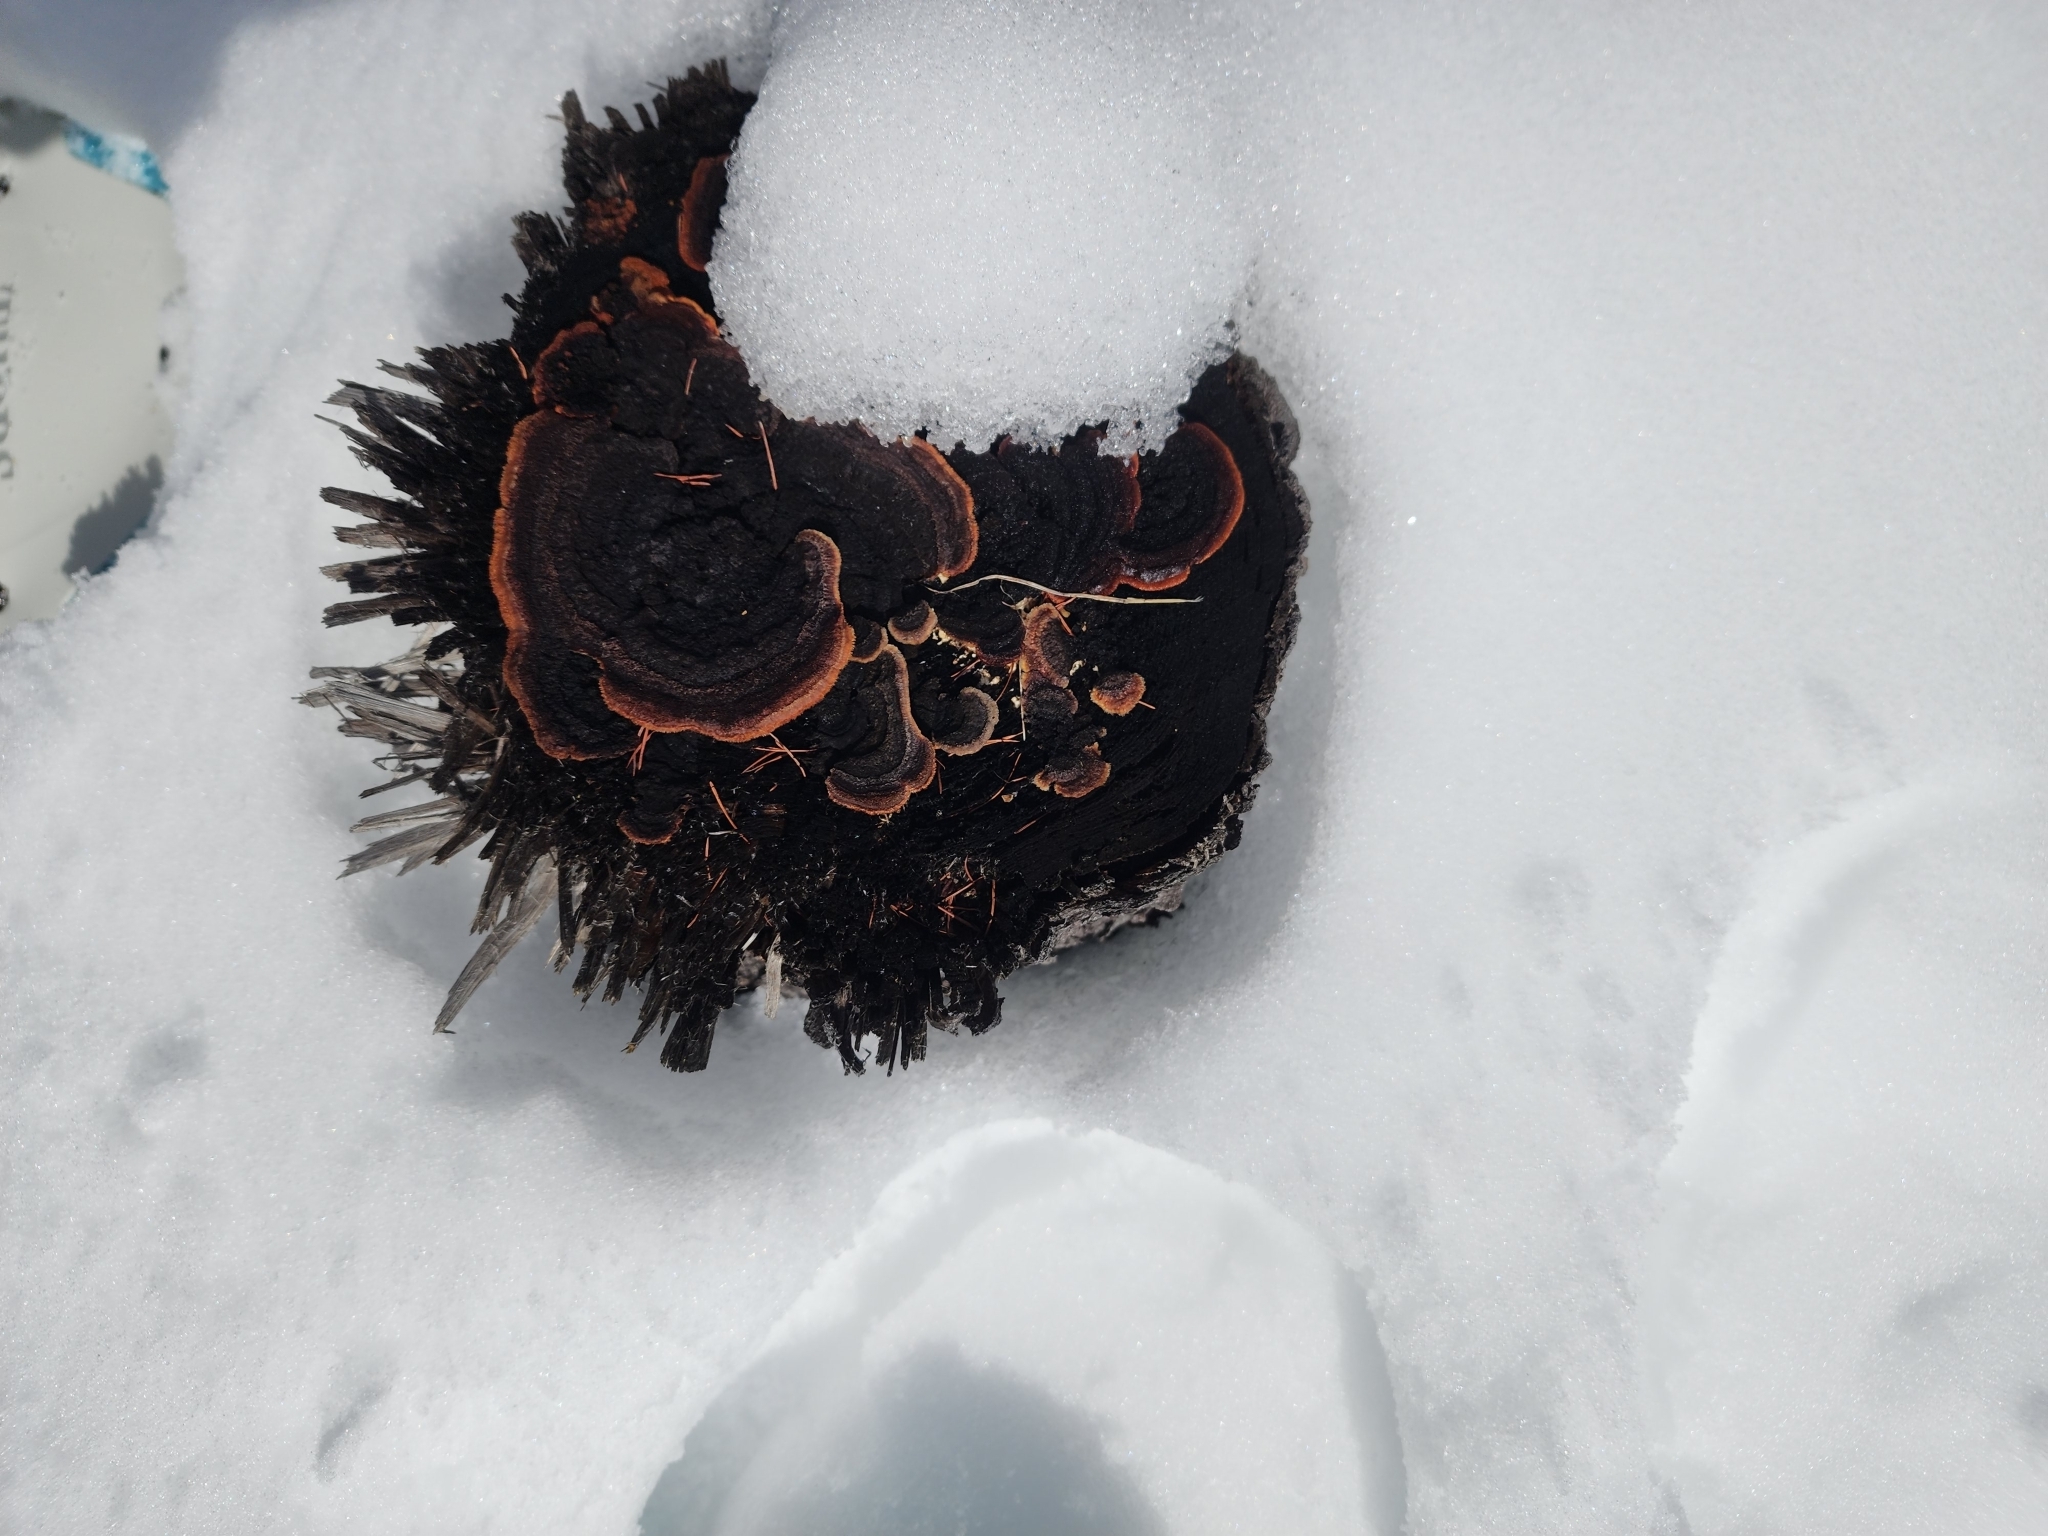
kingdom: Fungi
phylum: Basidiomycota
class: Agaricomycetes
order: Gloeophyllales
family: Gloeophyllaceae
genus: Gloeophyllum
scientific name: Gloeophyllum sepiarium
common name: Conifer mazegill
